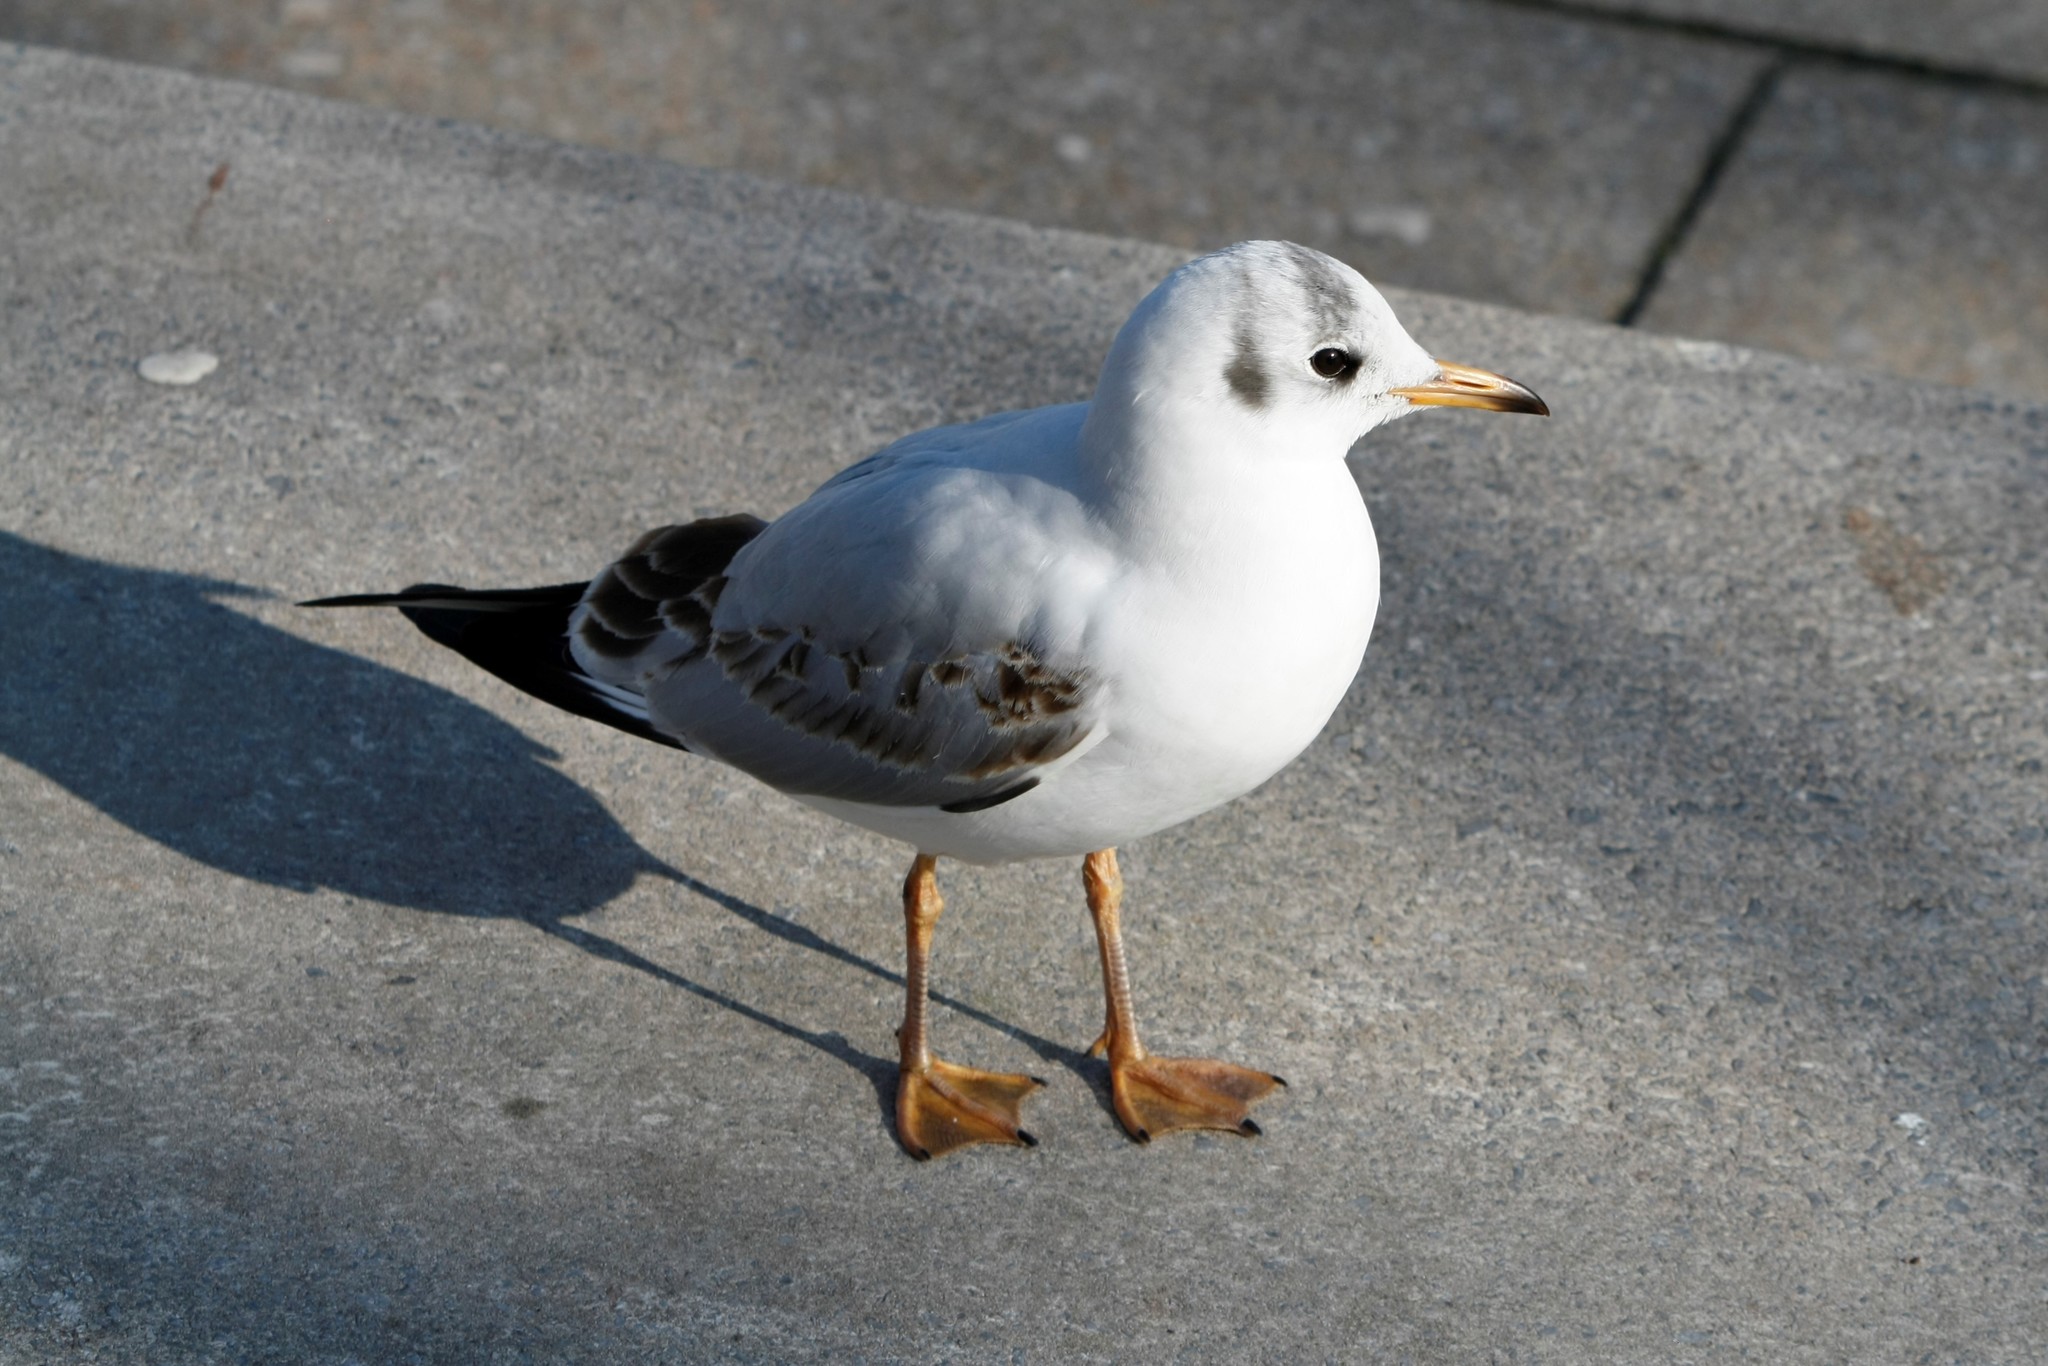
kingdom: Animalia
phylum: Chordata
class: Aves
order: Charadriiformes
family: Laridae
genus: Chroicocephalus
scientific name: Chroicocephalus ridibundus
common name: Black-headed gull
